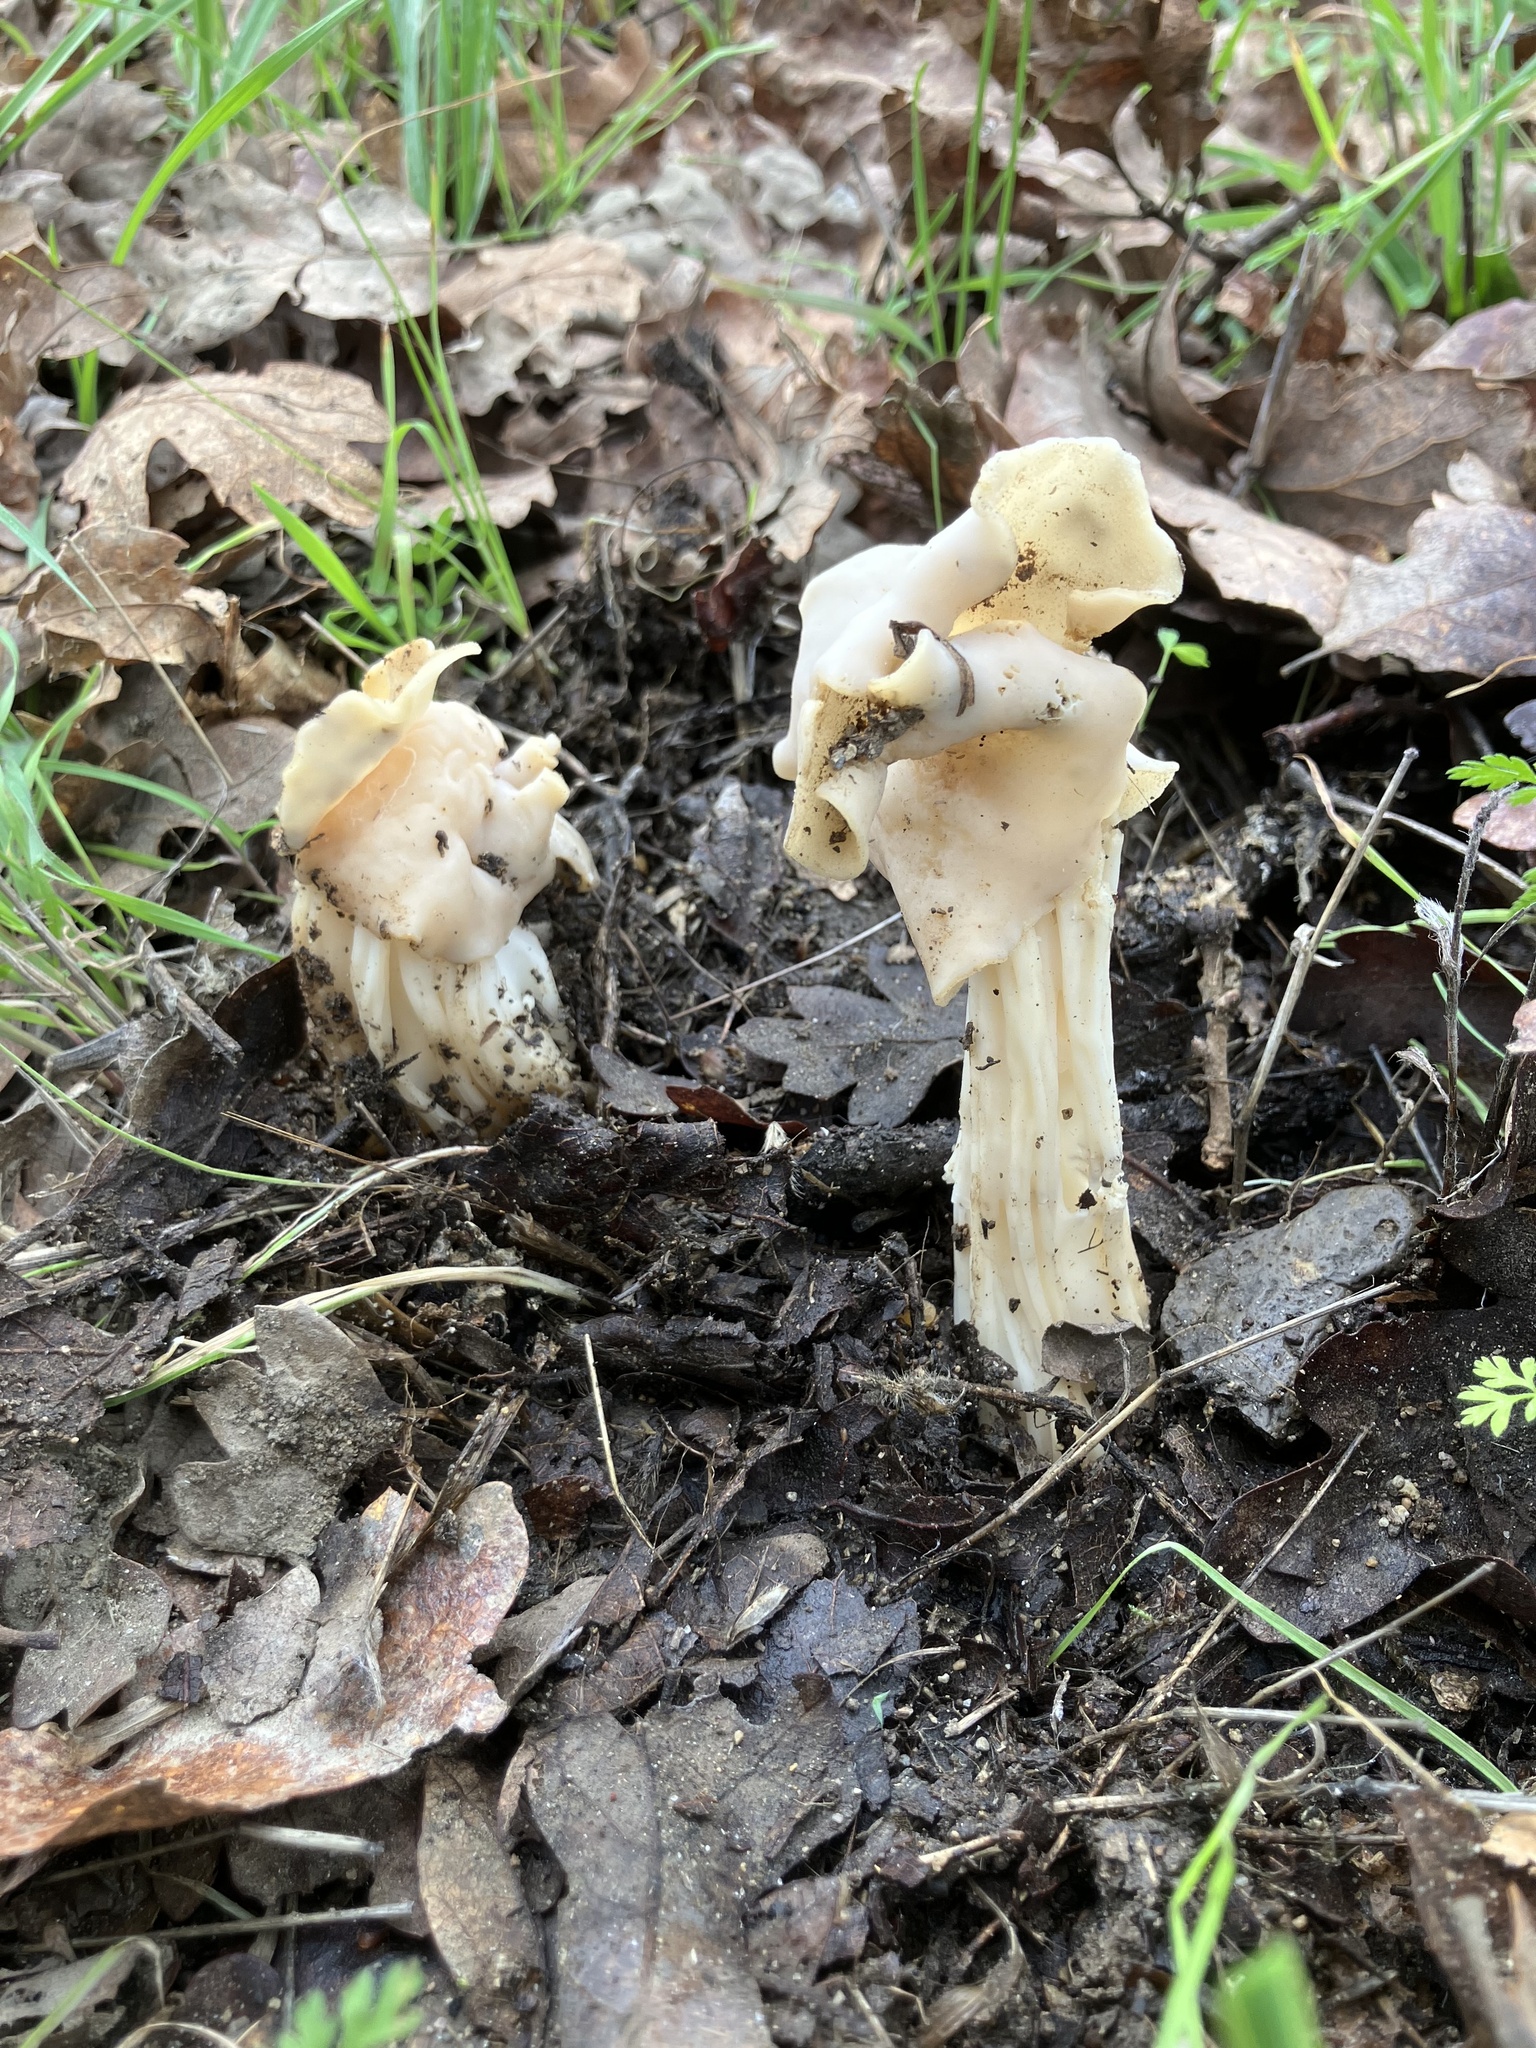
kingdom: Fungi
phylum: Ascomycota
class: Pezizomycetes
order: Pezizales
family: Helvellaceae
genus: Helvella
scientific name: Helvella crispa
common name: White saddle
